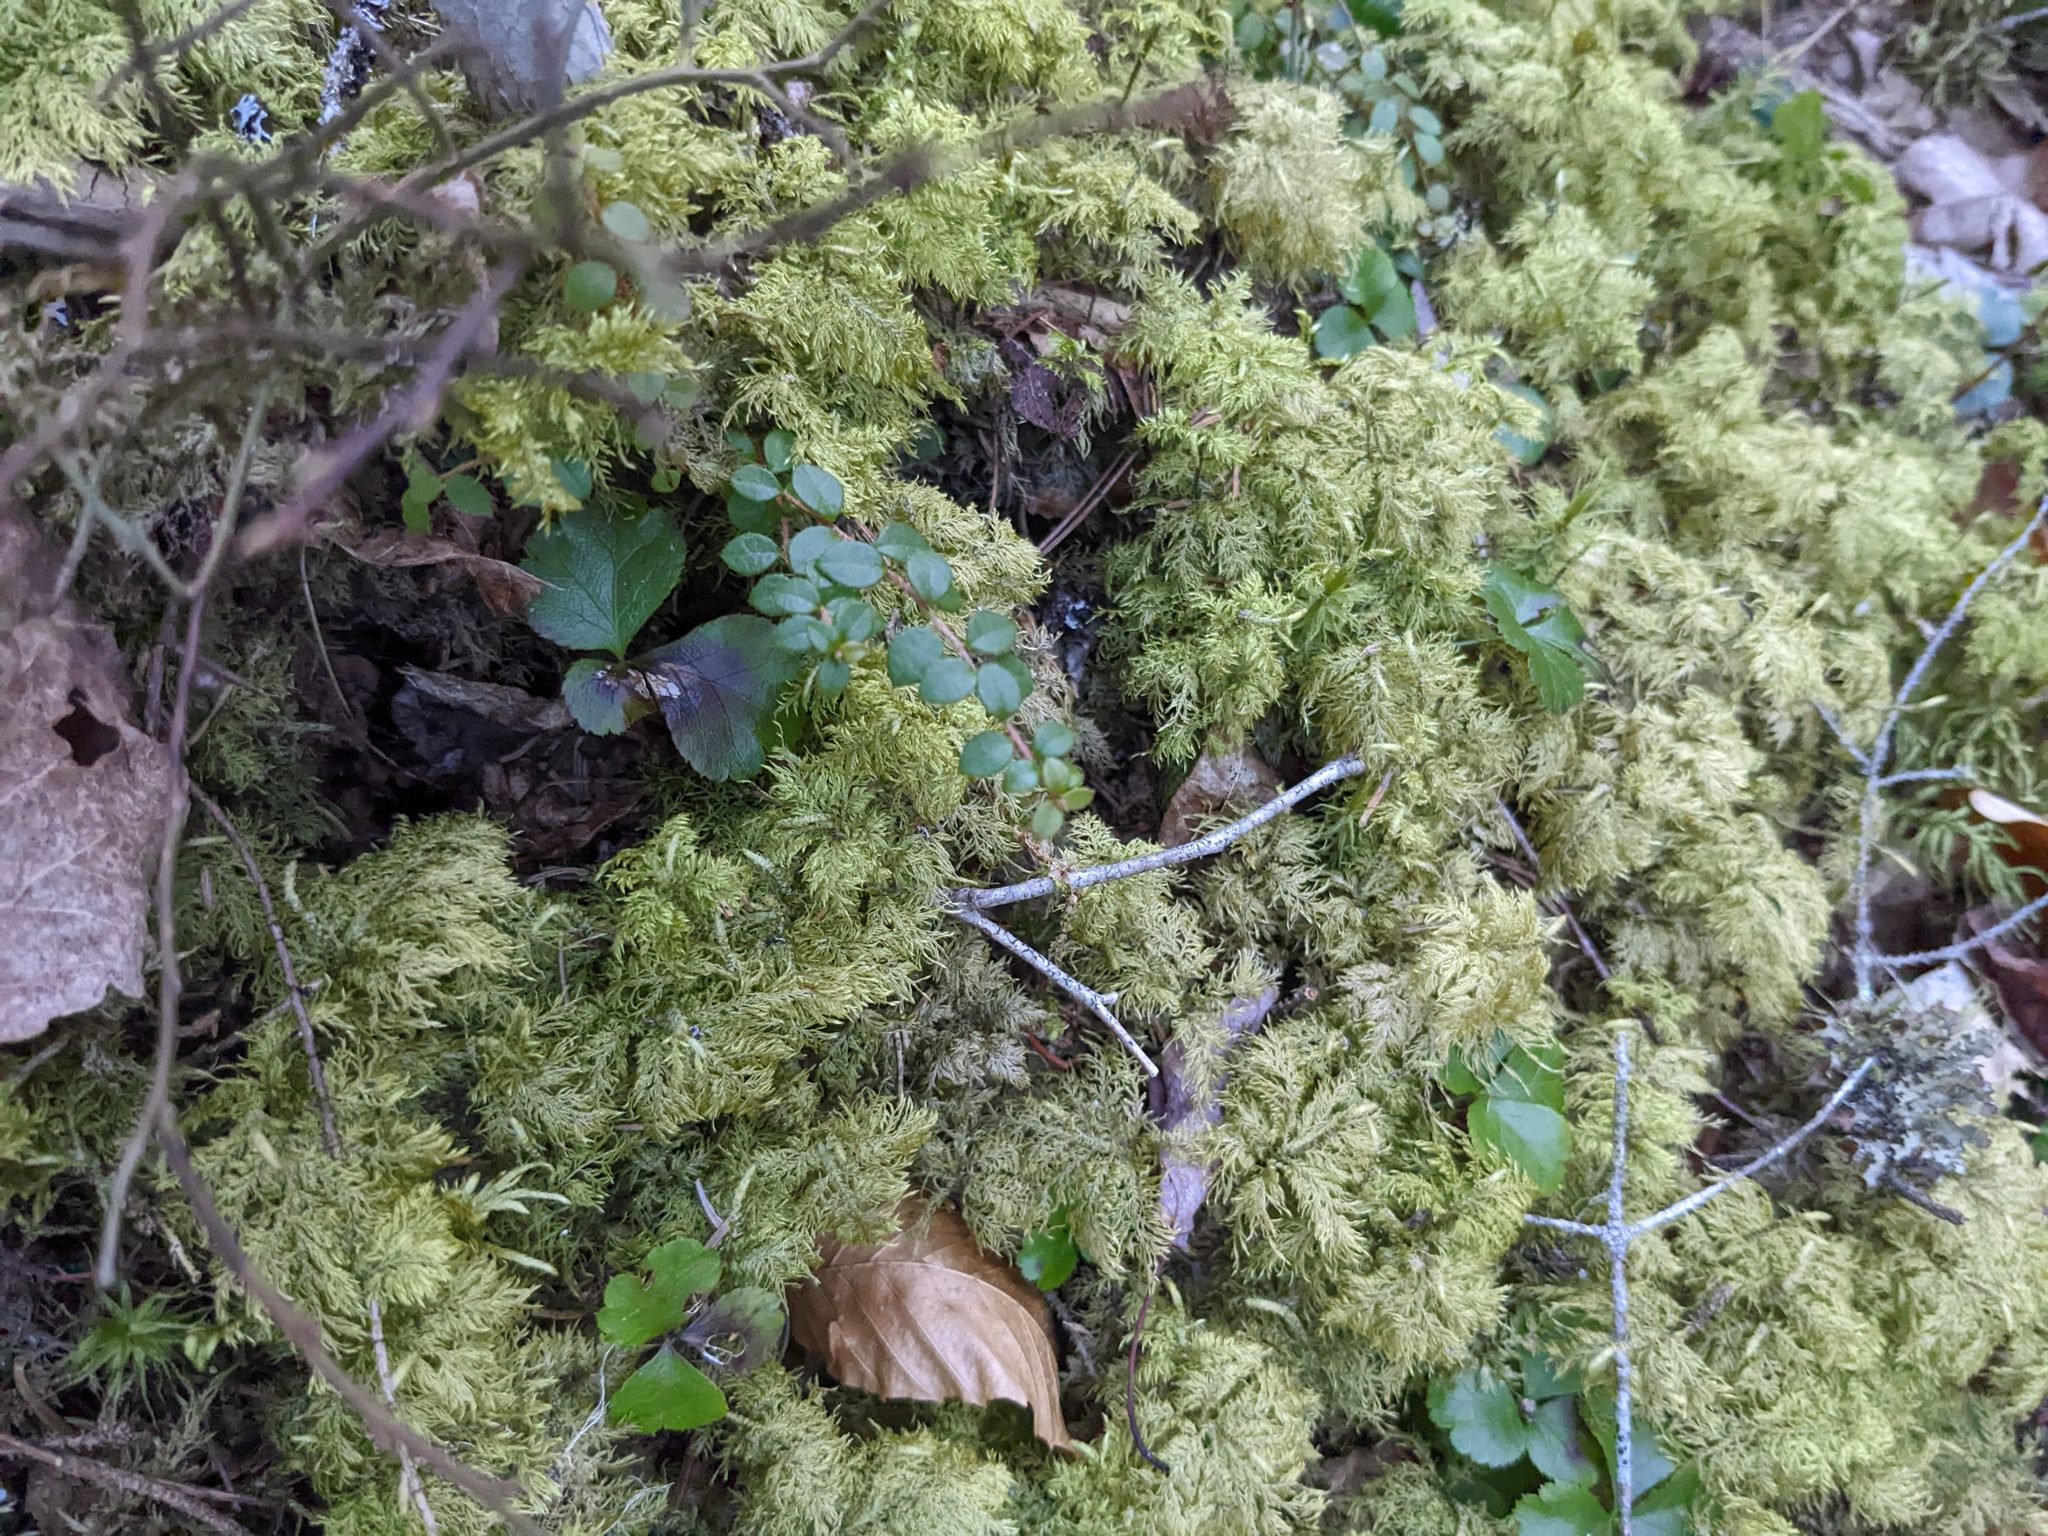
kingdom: Plantae
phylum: Tracheophyta
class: Magnoliopsida
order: Ericales
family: Ericaceae
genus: Gaultheria
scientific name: Gaultheria hispidula
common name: Cancer wintergreen
